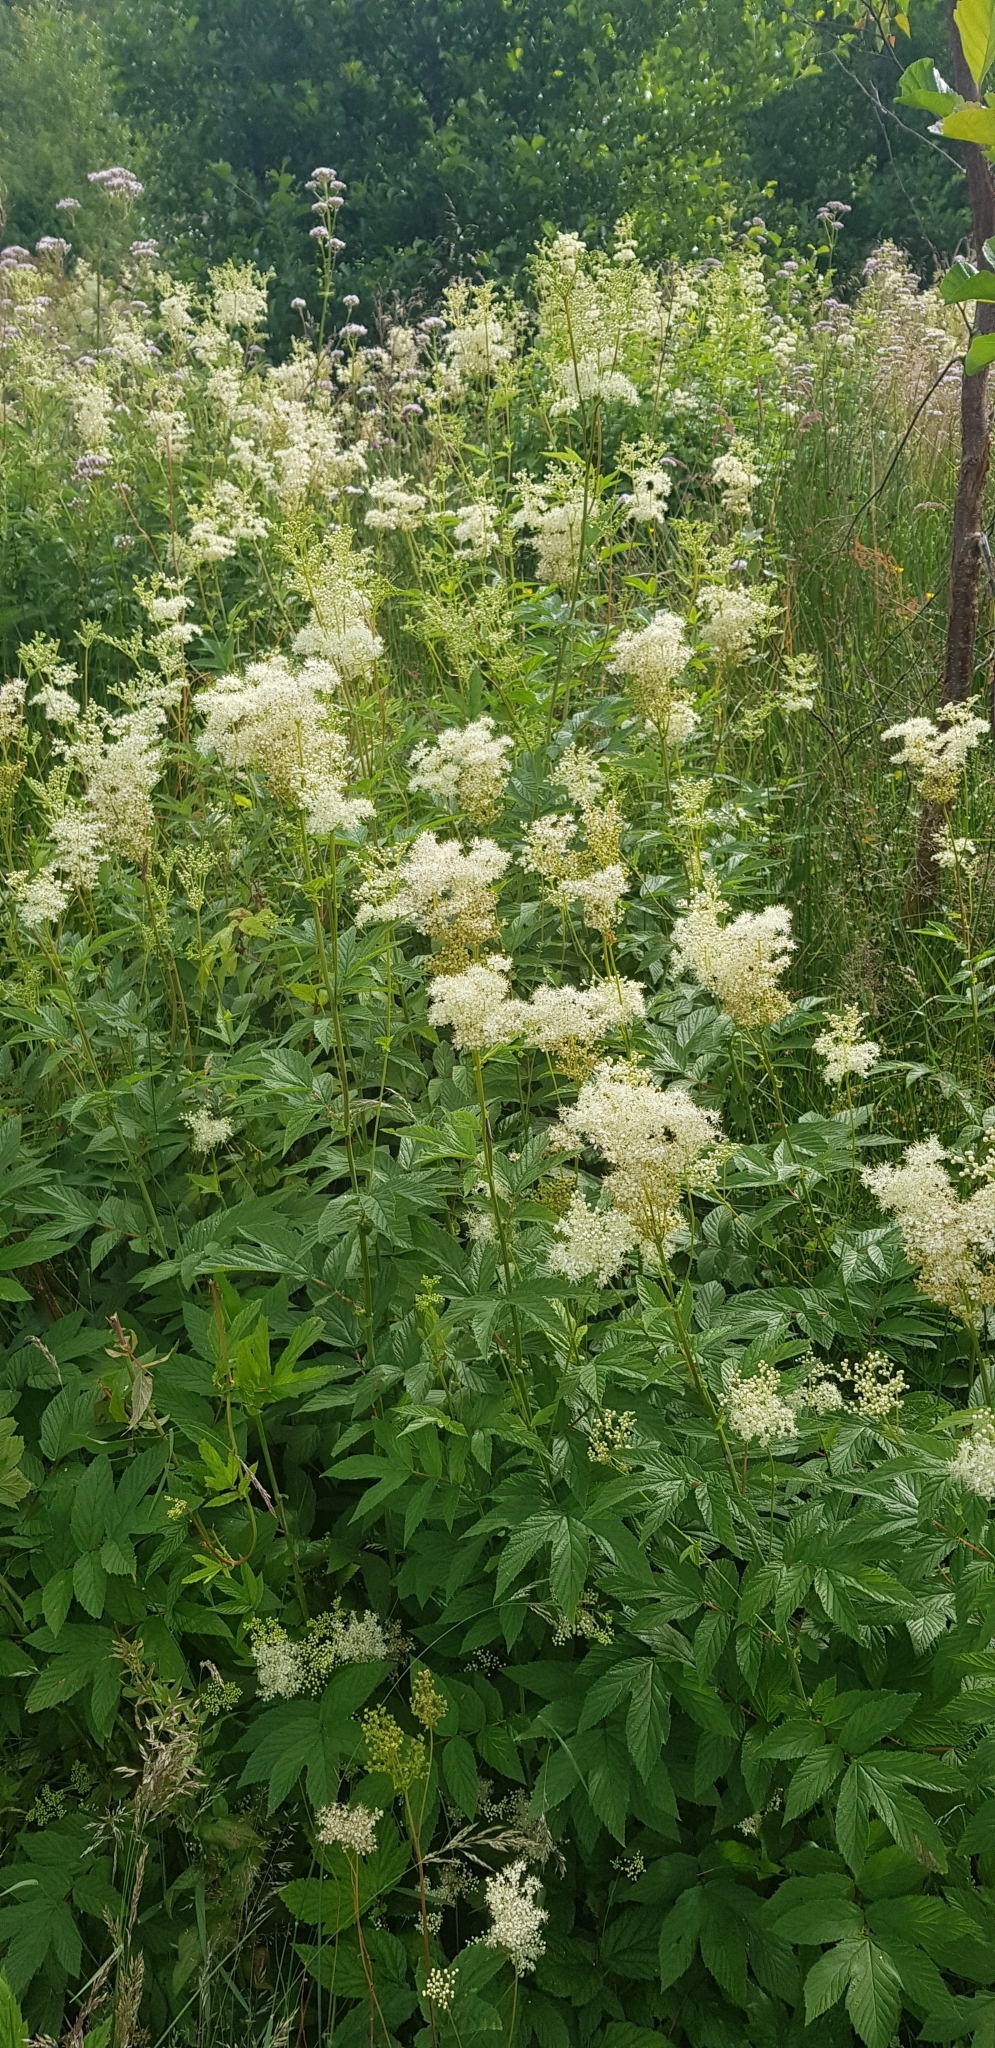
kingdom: Plantae
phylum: Tracheophyta
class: Magnoliopsida
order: Rosales
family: Rosaceae
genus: Filipendula
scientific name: Filipendula ulmaria
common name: Meadowsweet
